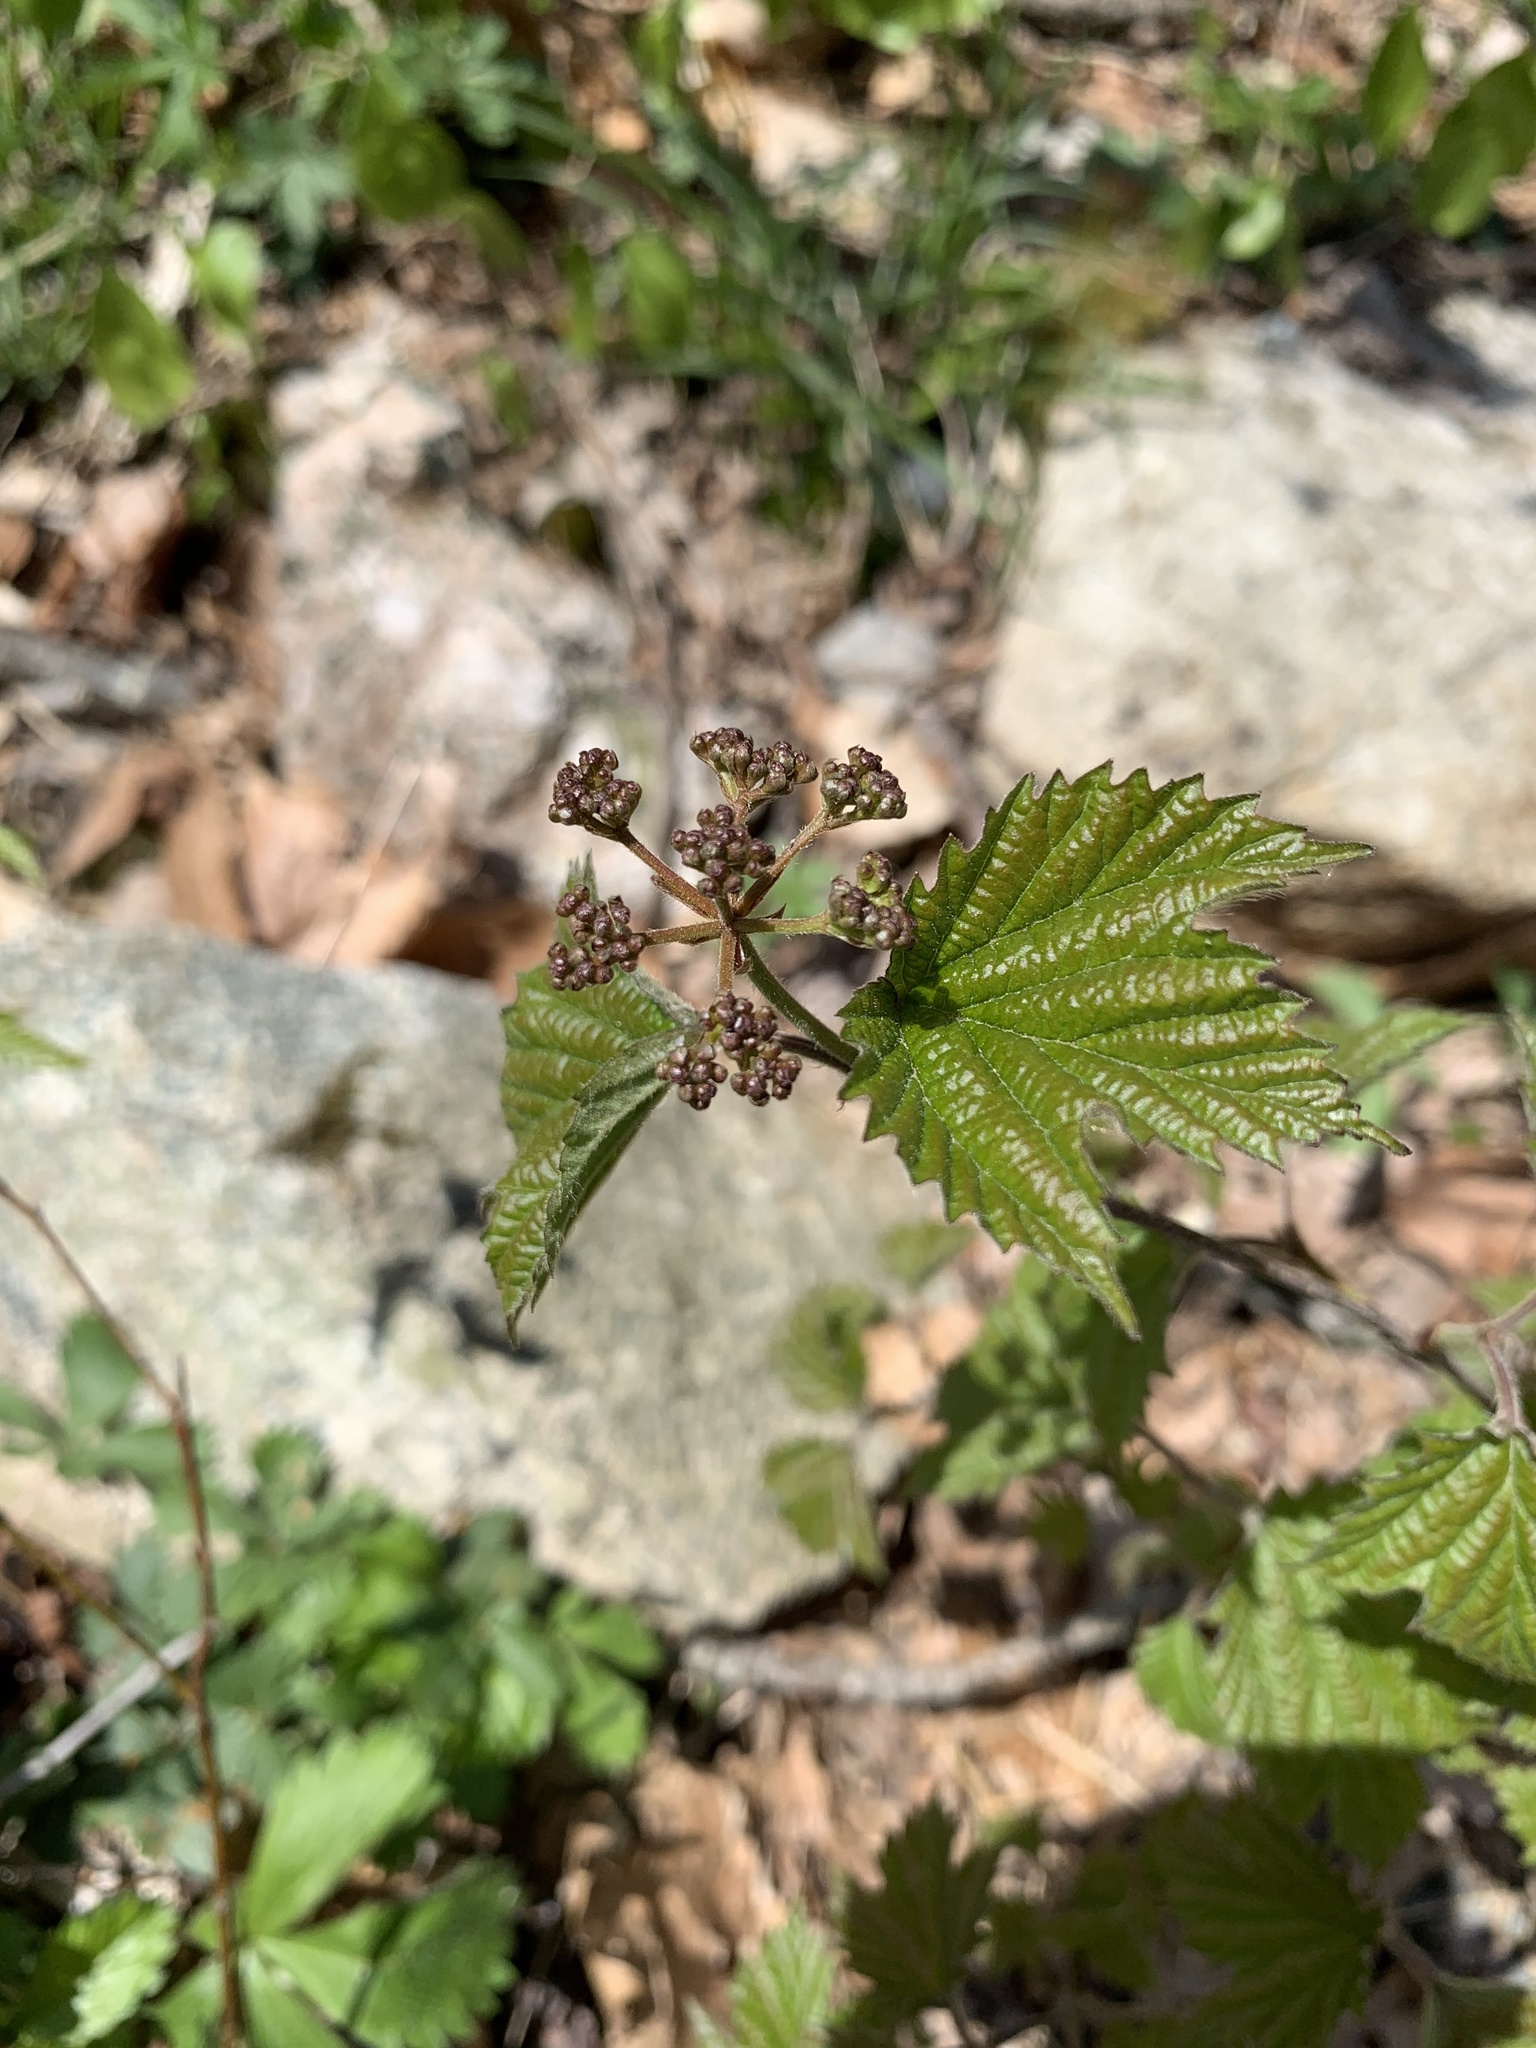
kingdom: Plantae
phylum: Tracheophyta
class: Magnoliopsida
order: Dipsacales
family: Viburnaceae
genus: Viburnum
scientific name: Viburnum acerifolium
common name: Dockmackie
